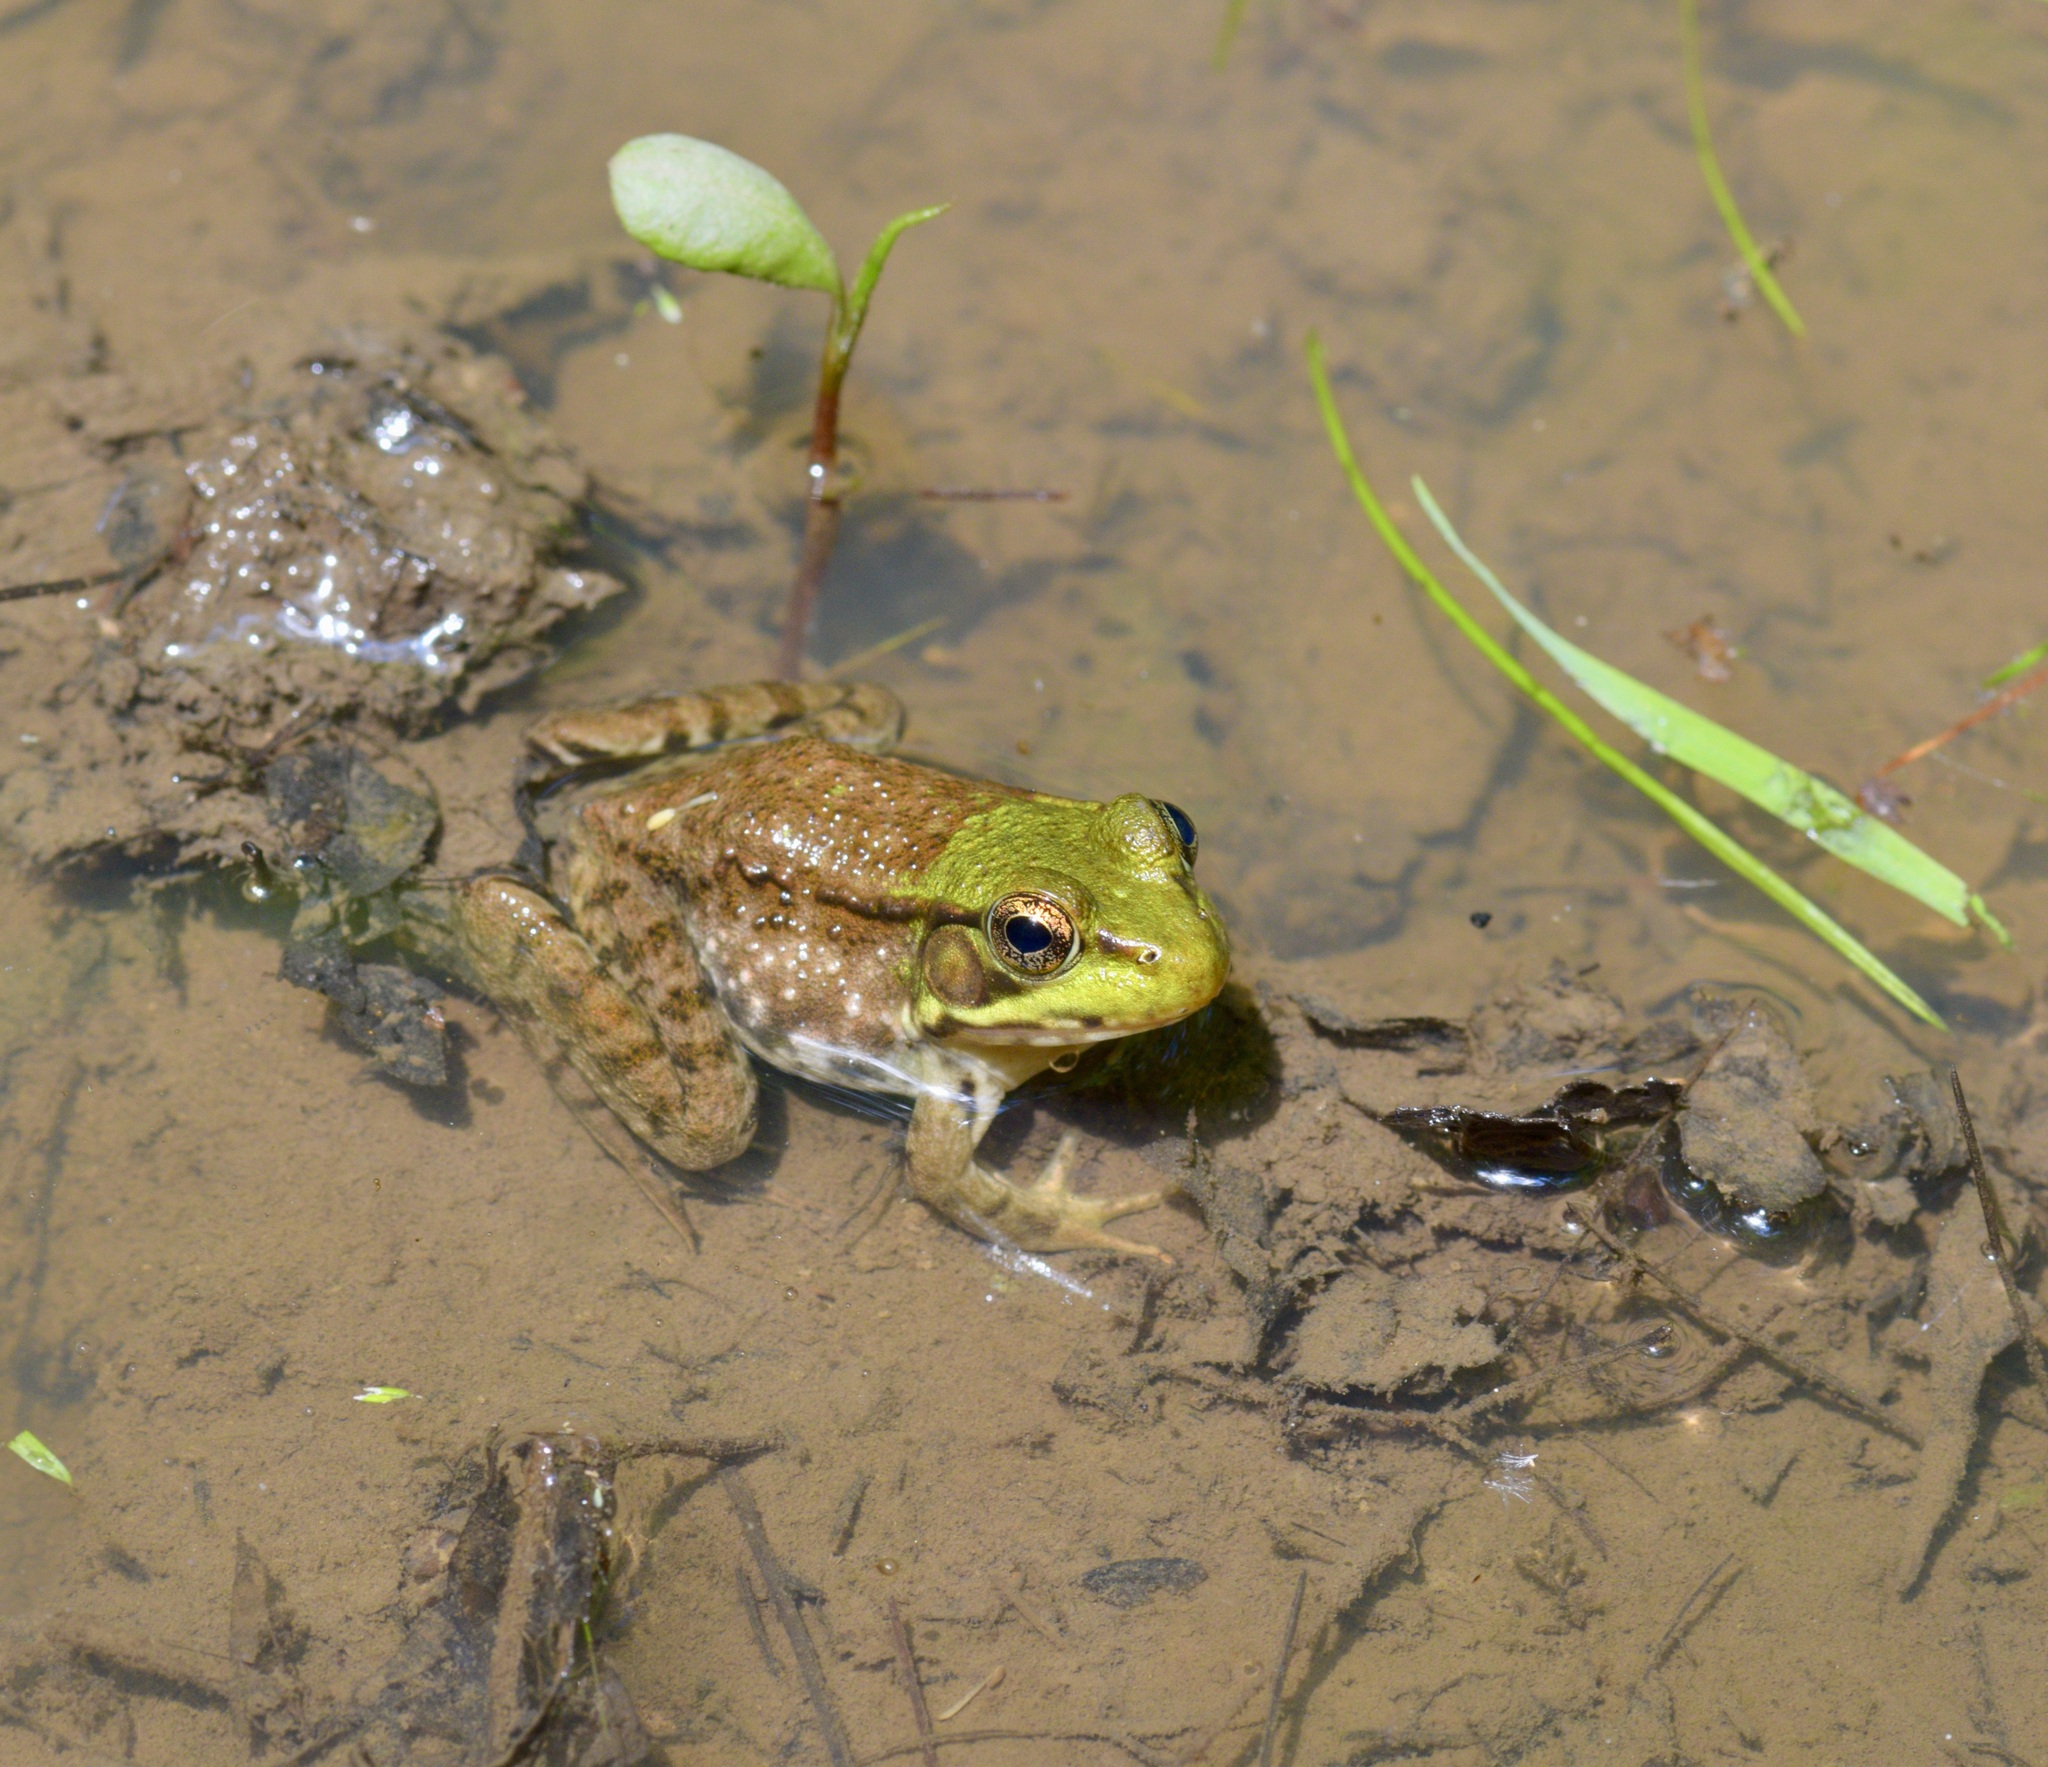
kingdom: Animalia
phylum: Chordata
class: Amphibia
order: Anura
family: Ranidae
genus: Lithobates
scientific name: Lithobates clamitans
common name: Green frog
